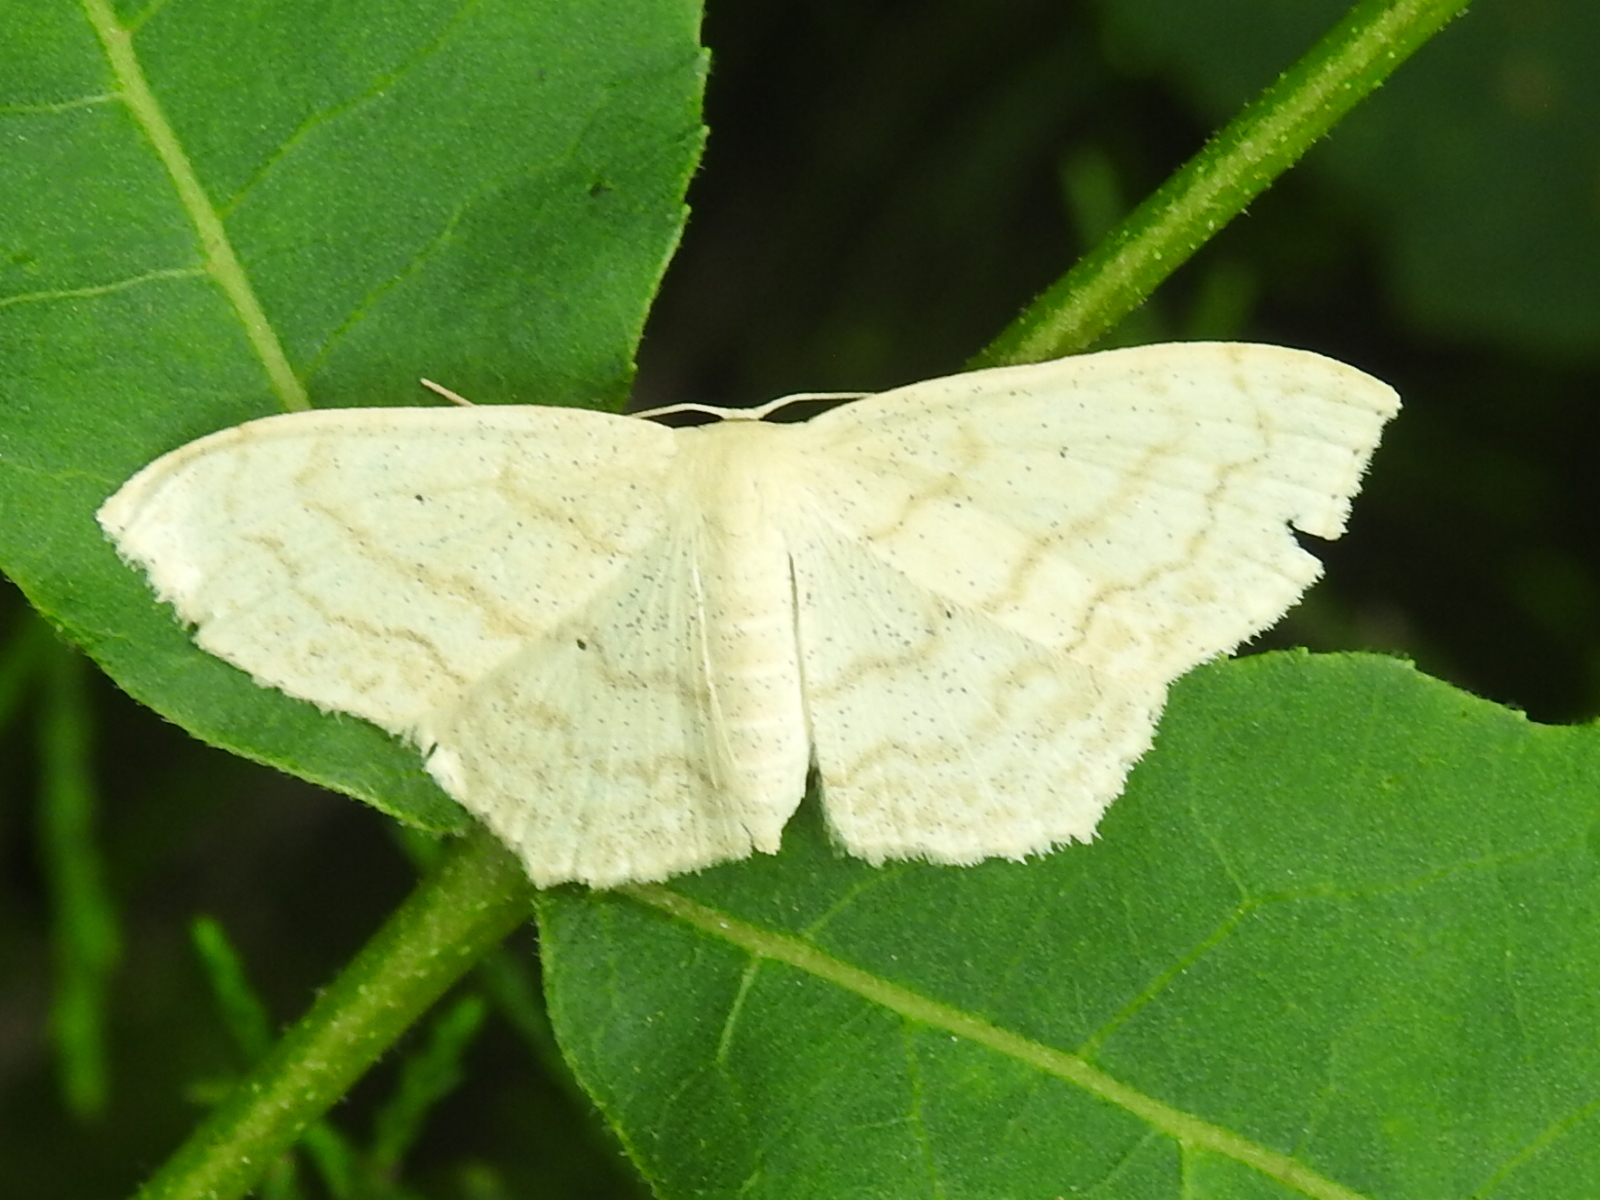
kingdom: Animalia
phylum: Arthropoda
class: Insecta
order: Lepidoptera
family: Geometridae
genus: Scopula
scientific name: Scopula umbilicata
